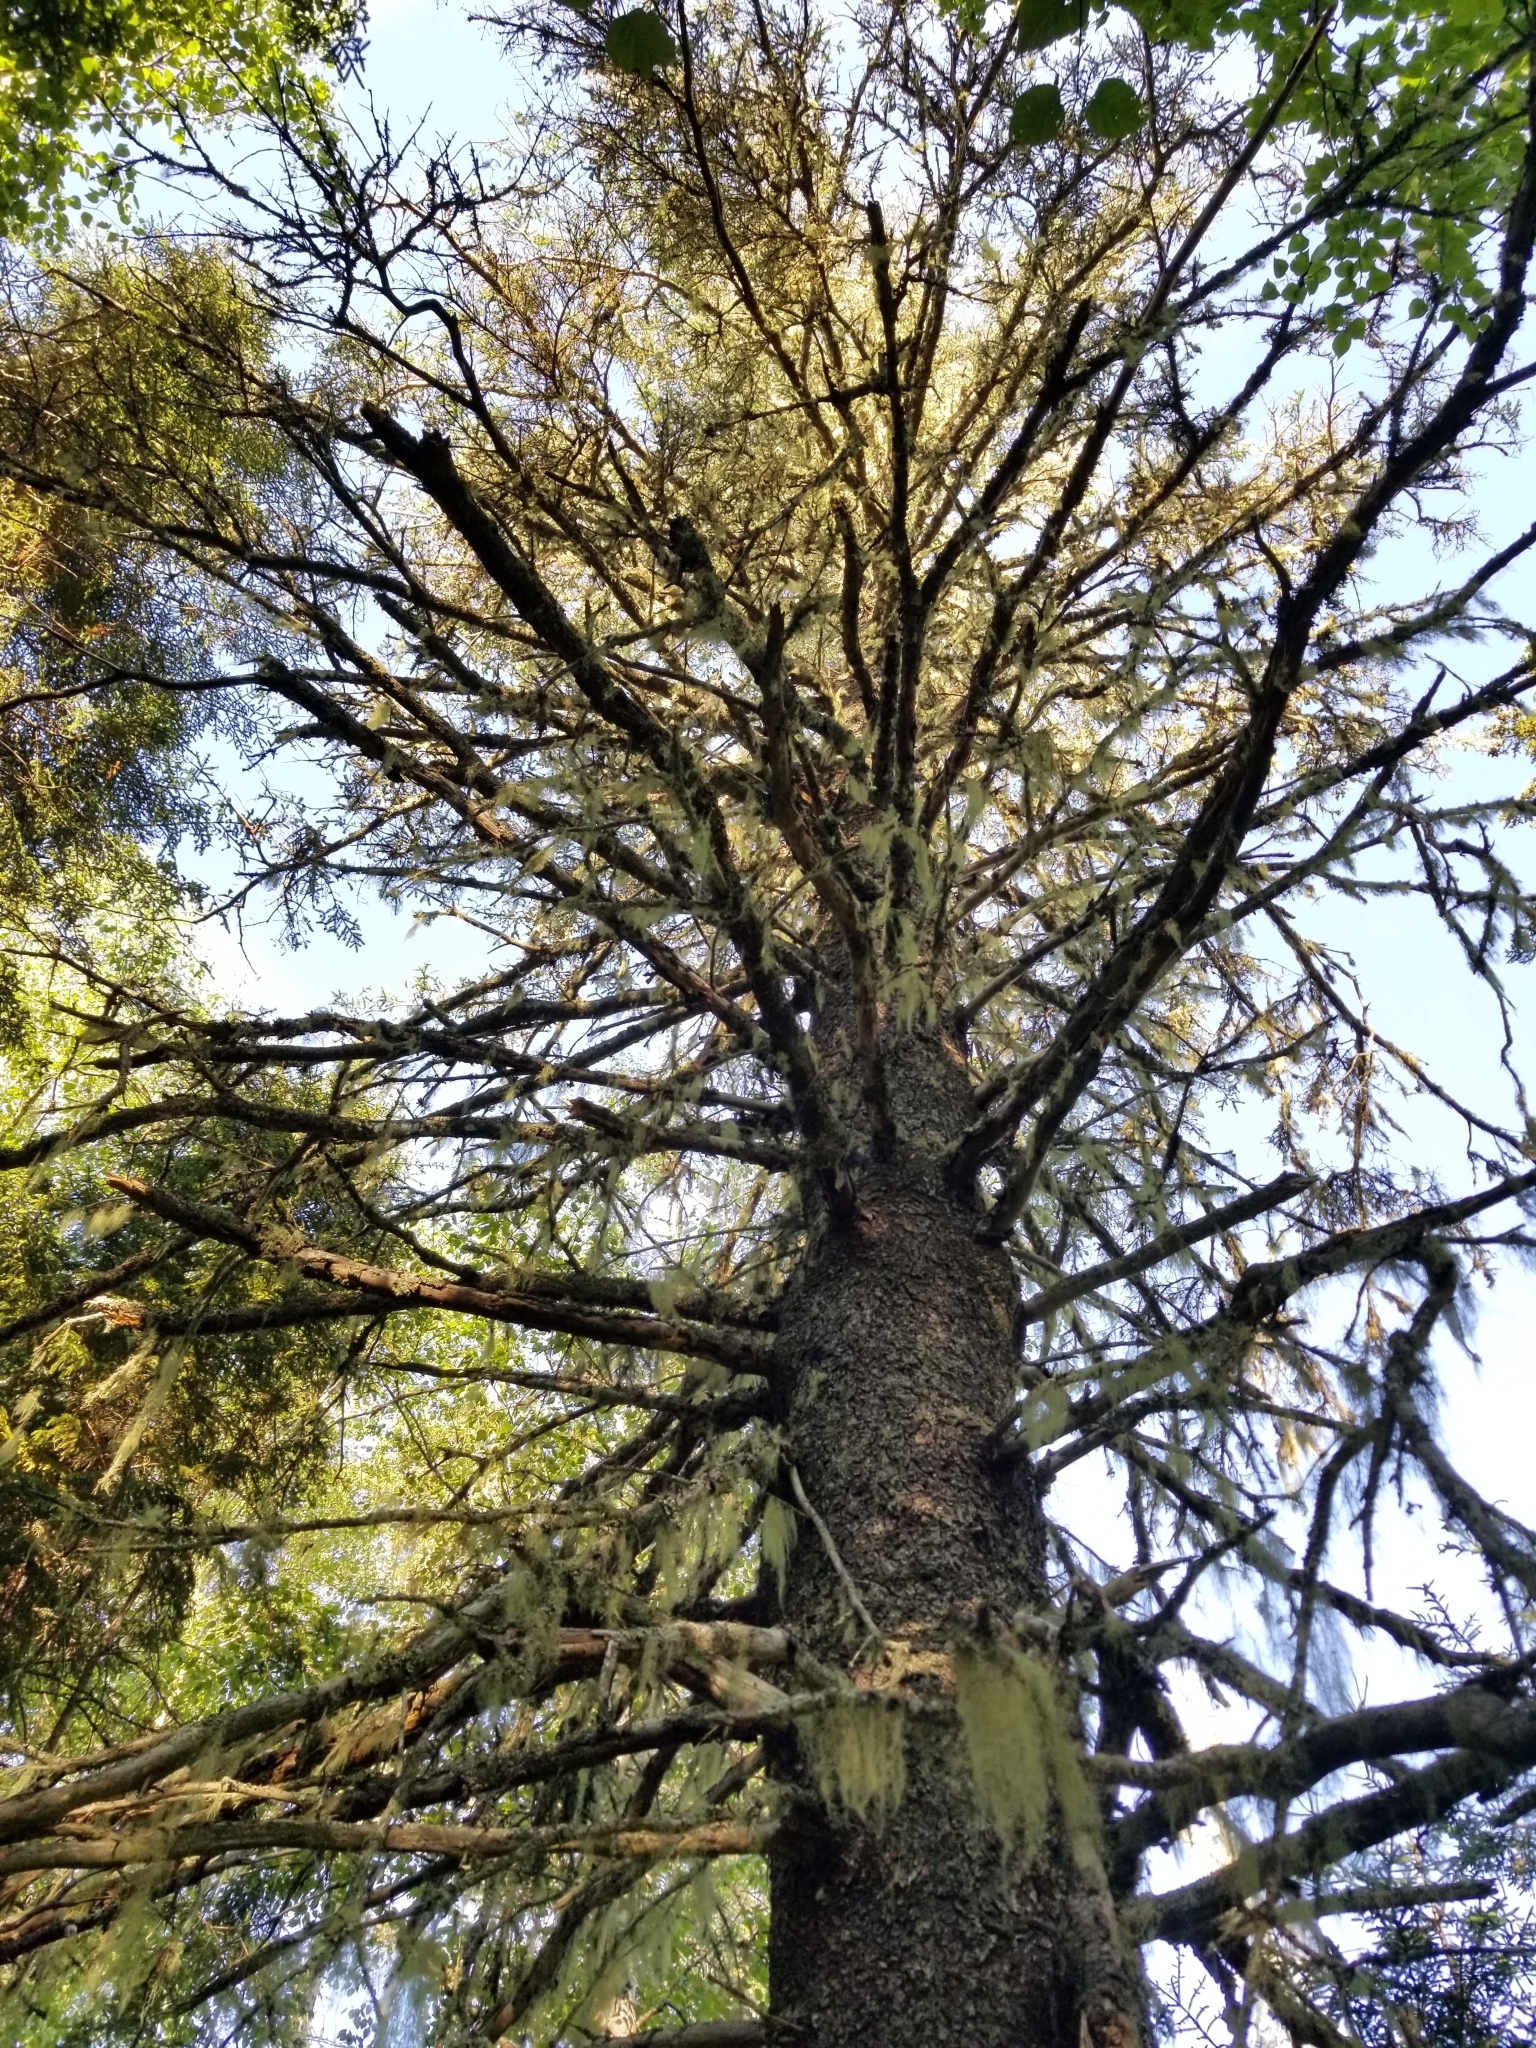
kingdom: Plantae
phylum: Tracheophyta
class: Pinopsida
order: Pinales
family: Pinaceae
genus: Picea
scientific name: Picea glauca
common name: White spruce
